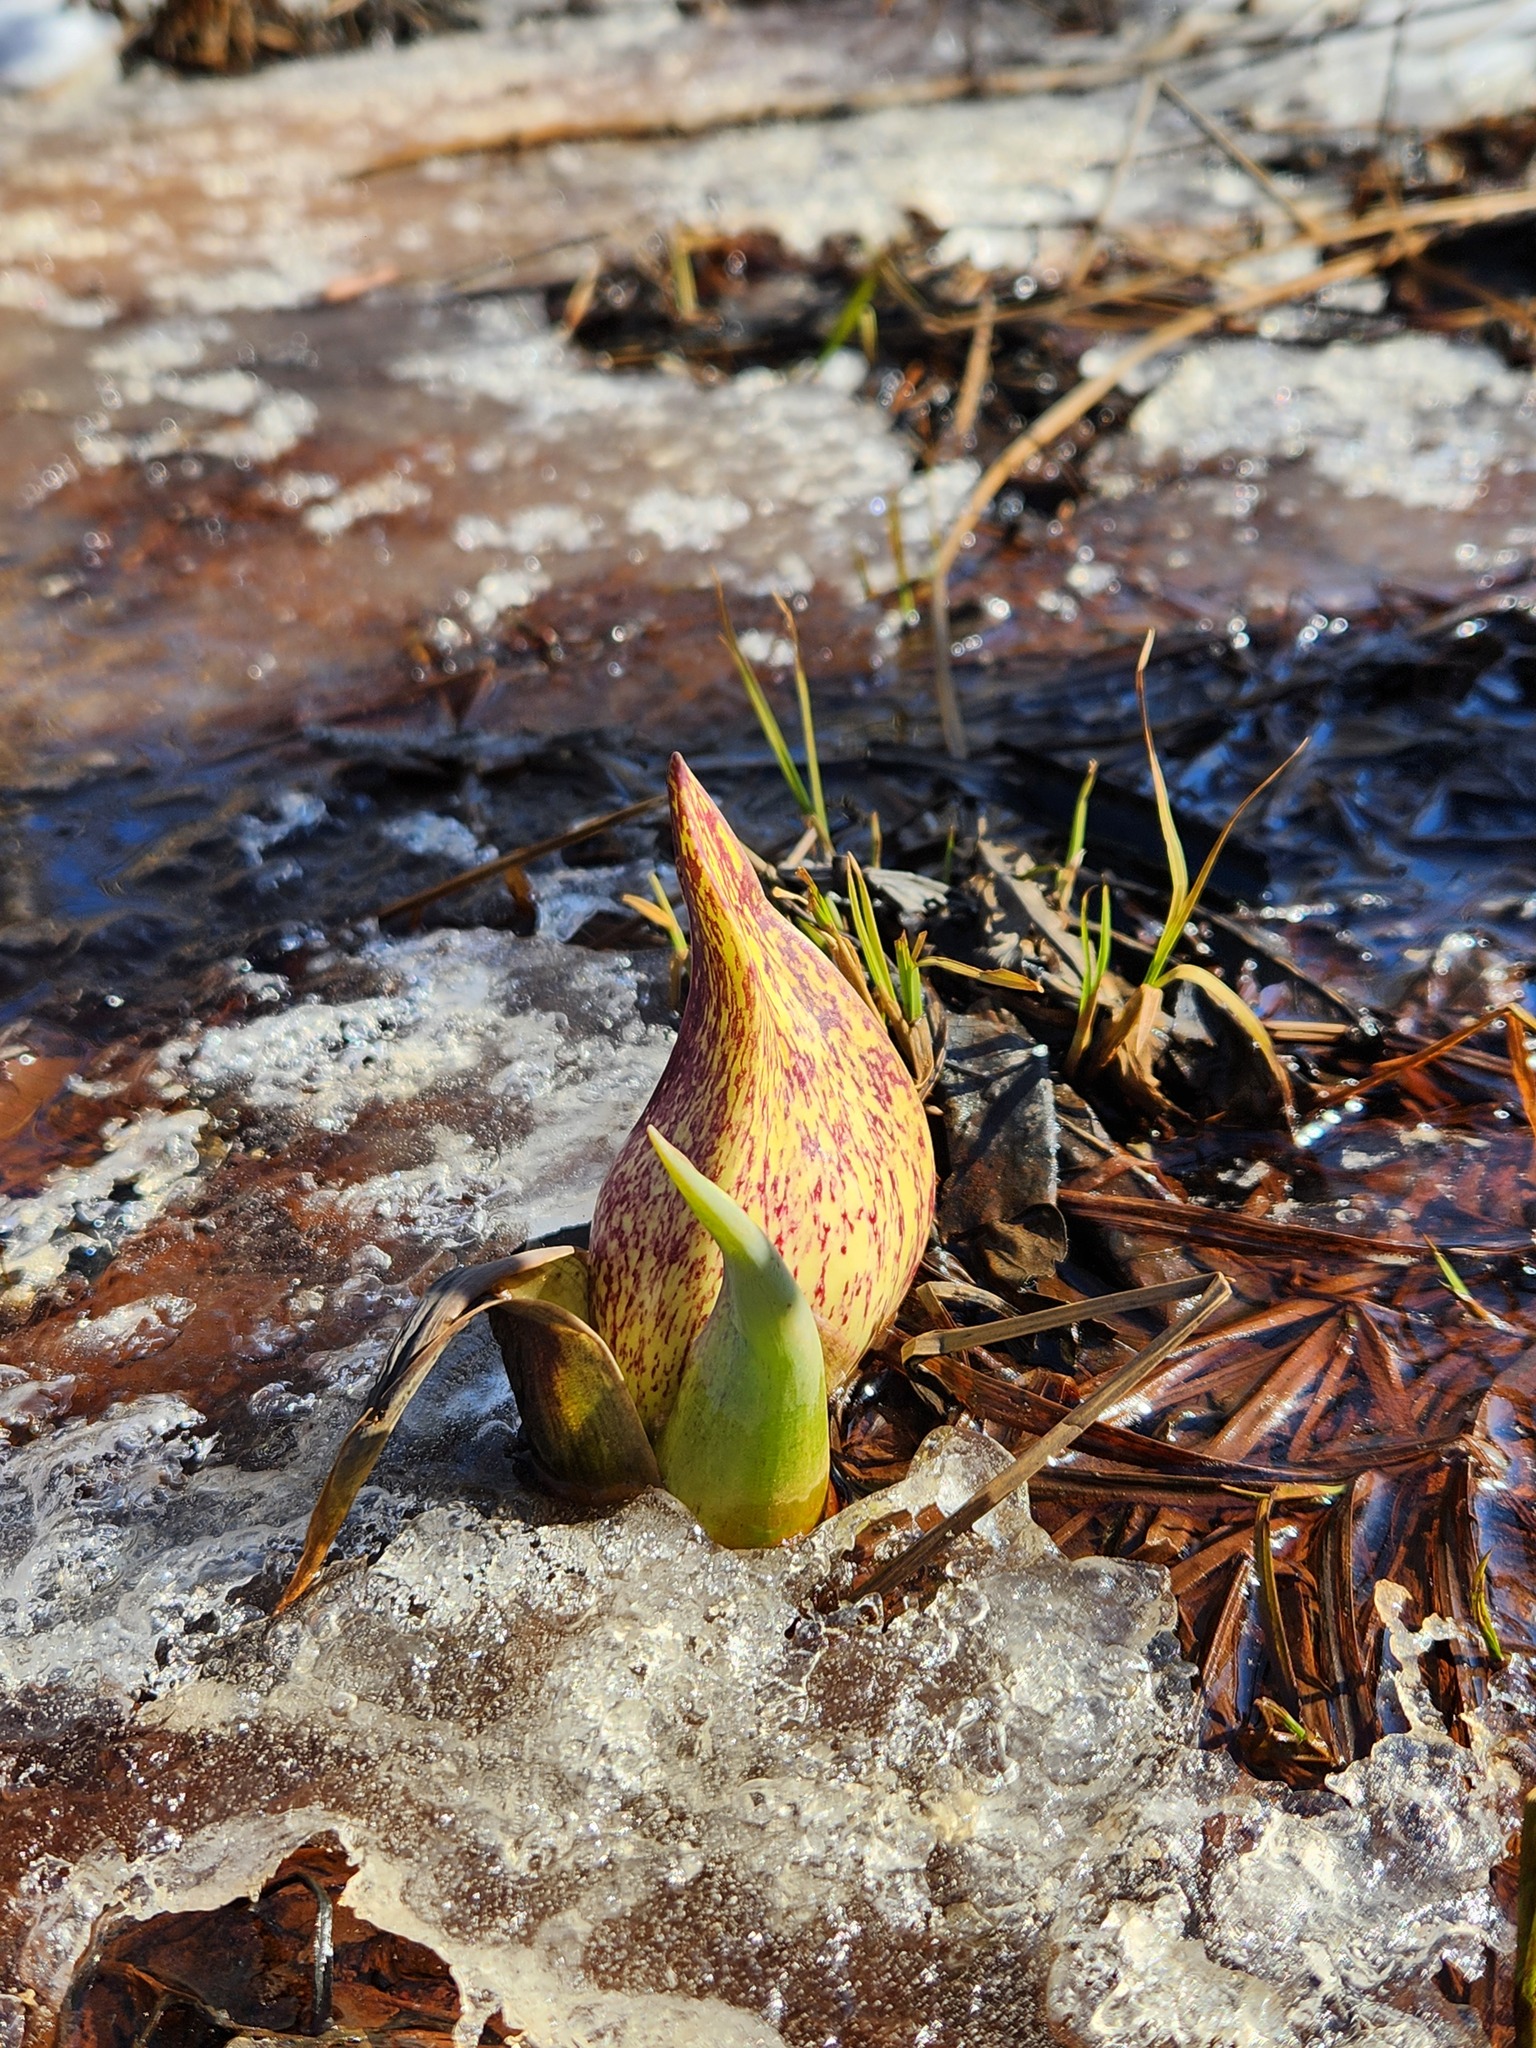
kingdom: Plantae
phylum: Tracheophyta
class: Liliopsida
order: Alismatales
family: Araceae
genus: Symplocarpus
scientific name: Symplocarpus foetidus
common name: Eastern skunk cabbage
